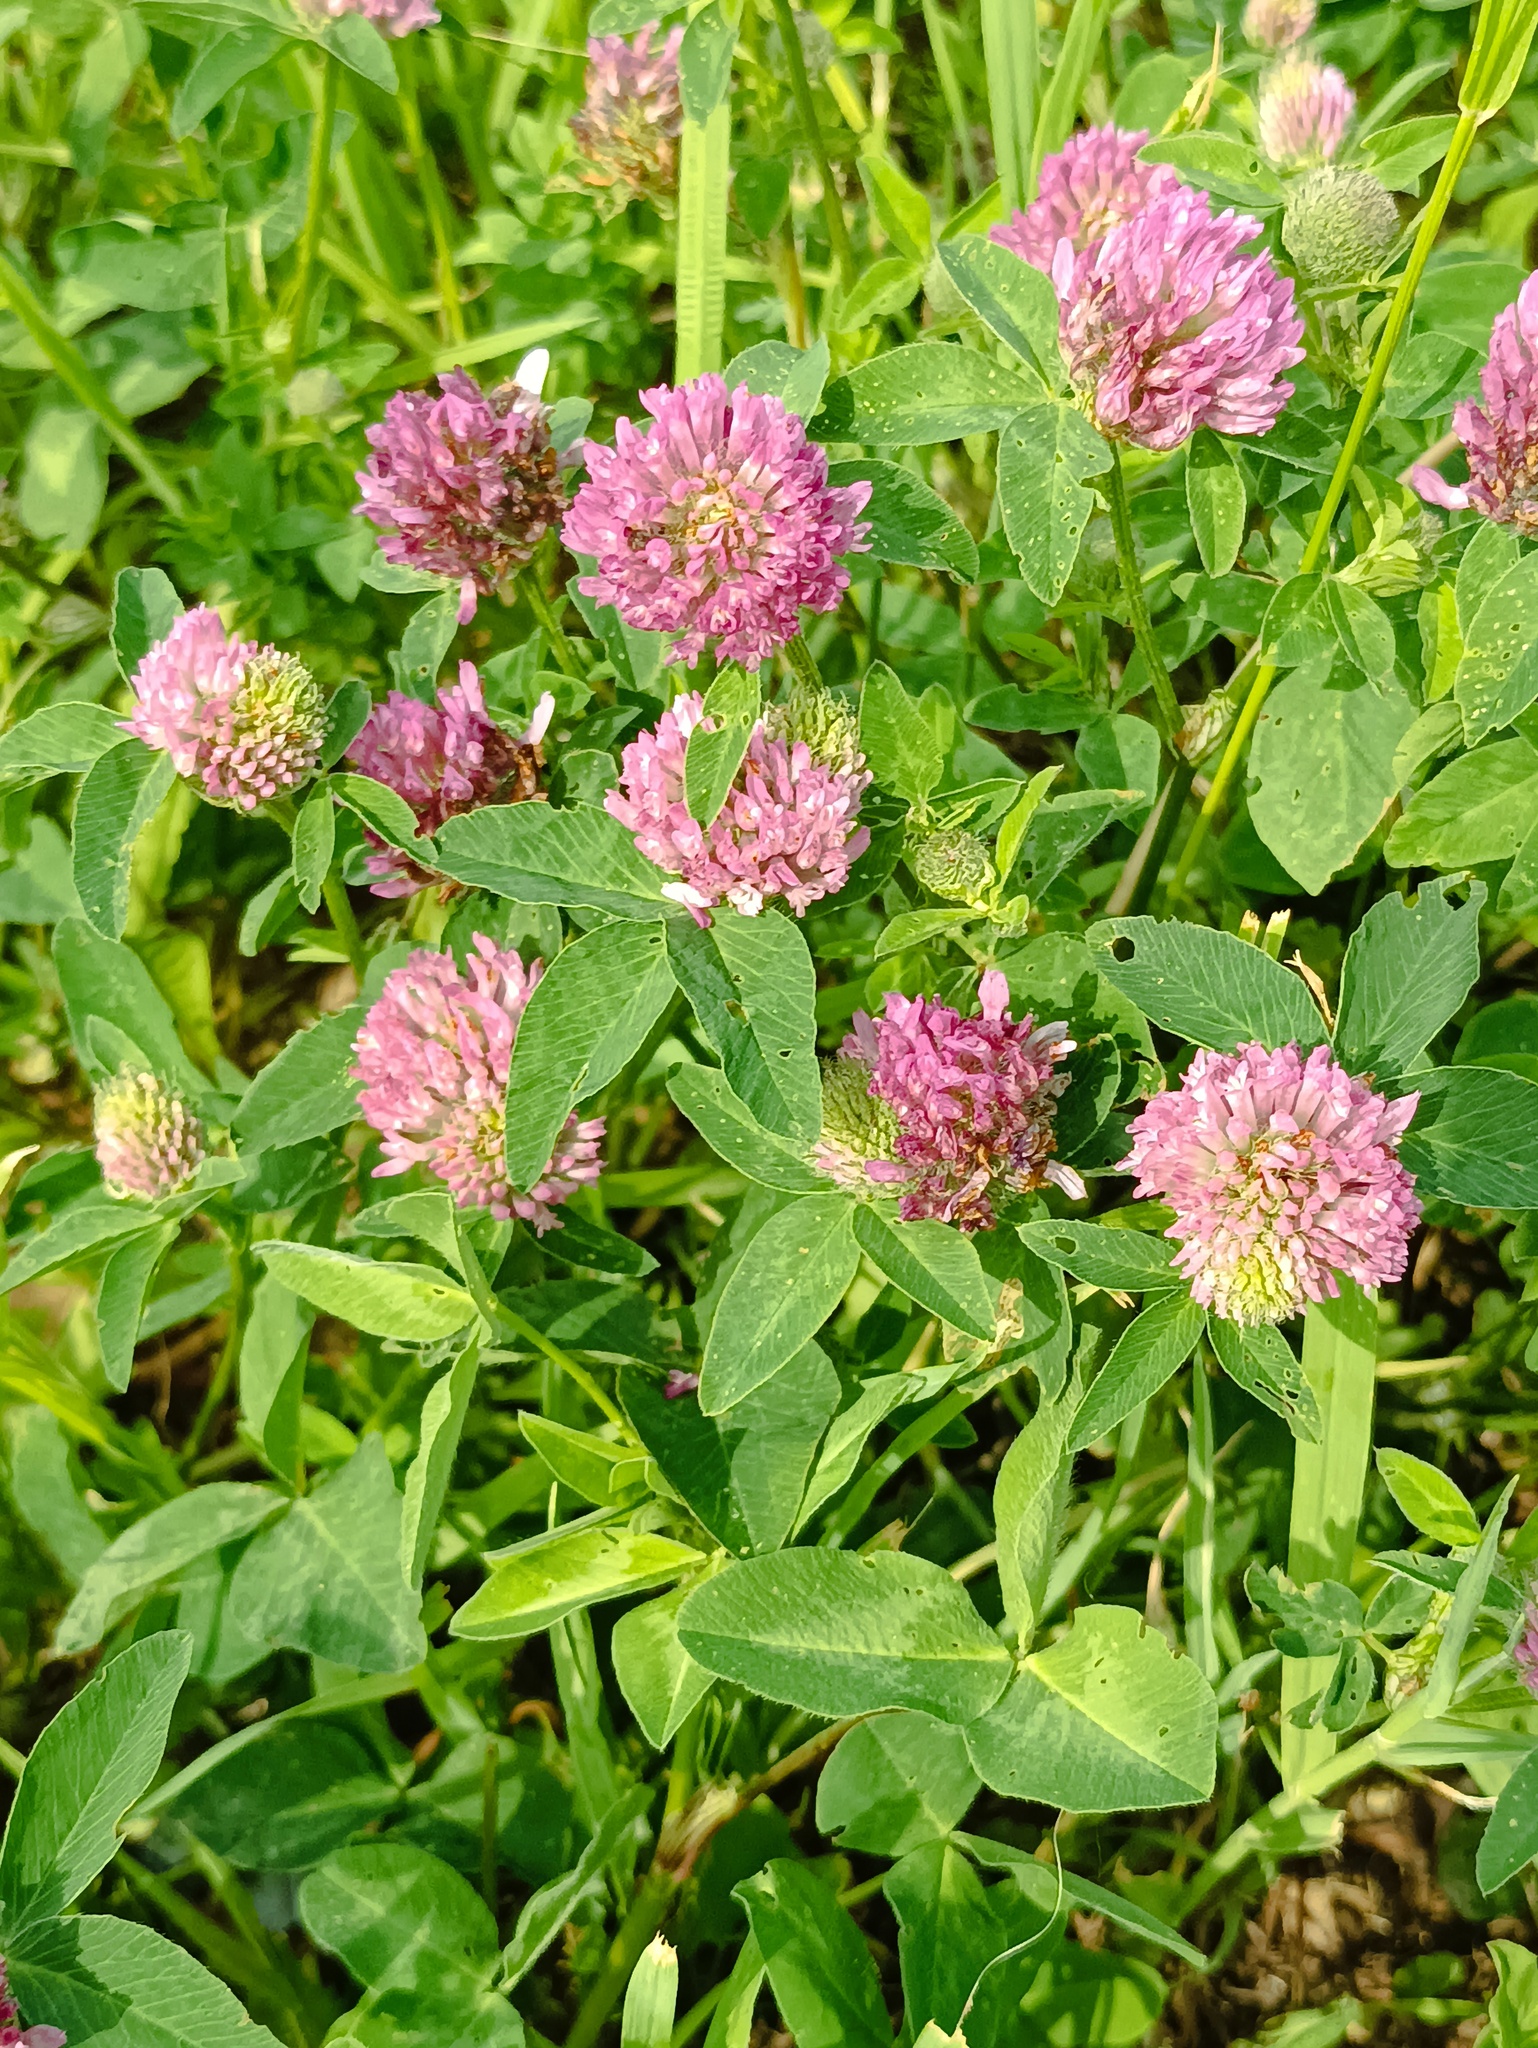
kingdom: Plantae
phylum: Tracheophyta
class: Magnoliopsida
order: Fabales
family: Fabaceae
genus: Trifolium
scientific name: Trifolium pratense
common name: Red clover
